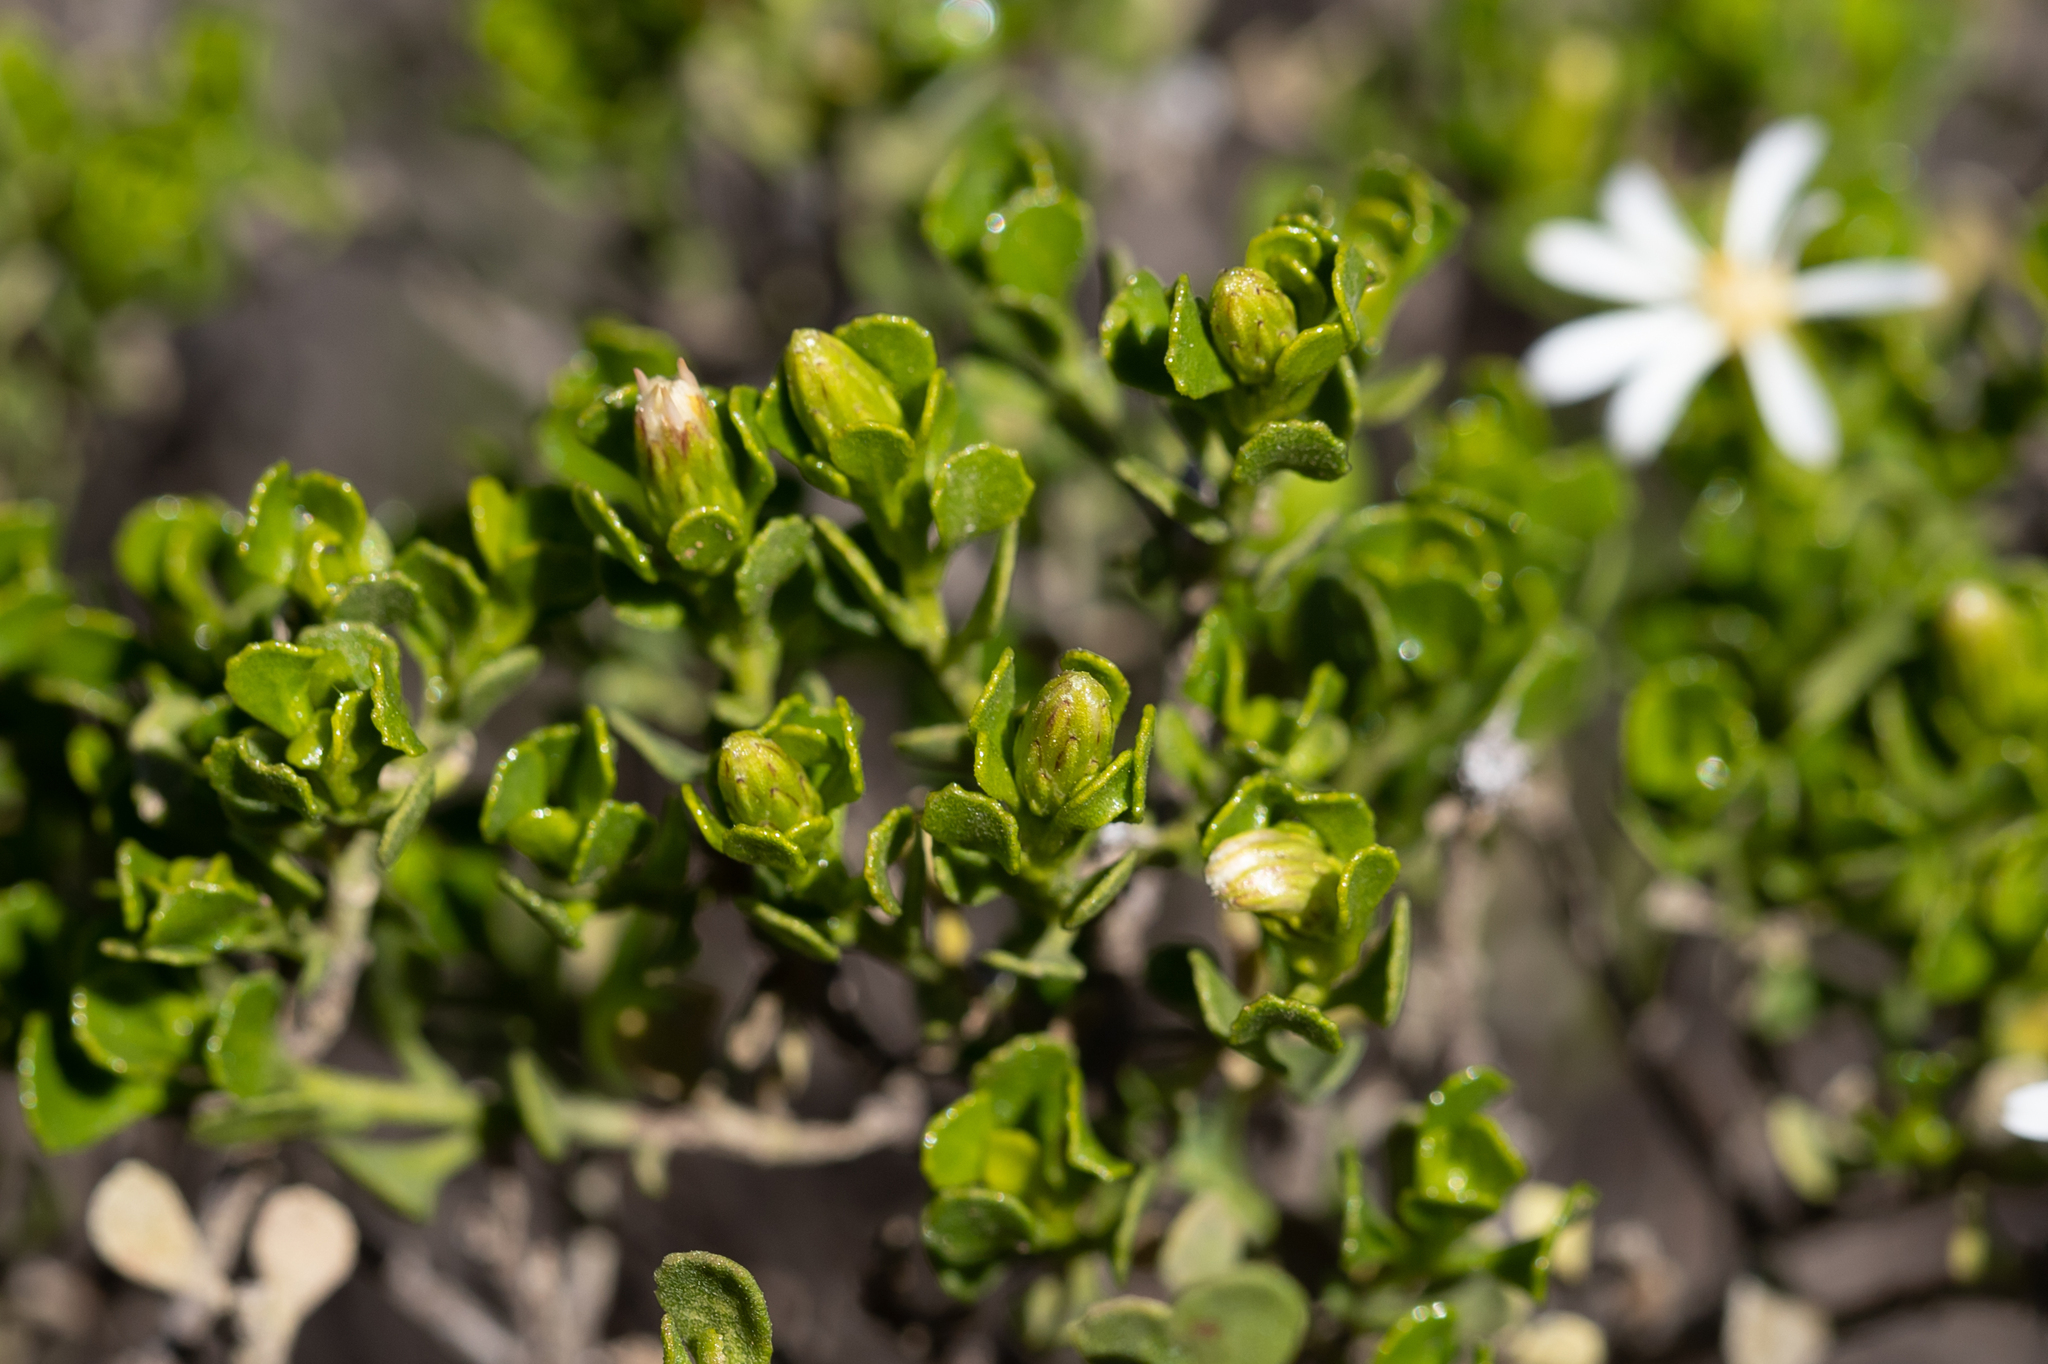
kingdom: Plantae
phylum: Tracheophyta
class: Magnoliopsida
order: Asterales
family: Asteraceae
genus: Walsholaria
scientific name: Walsholaria muelleri
